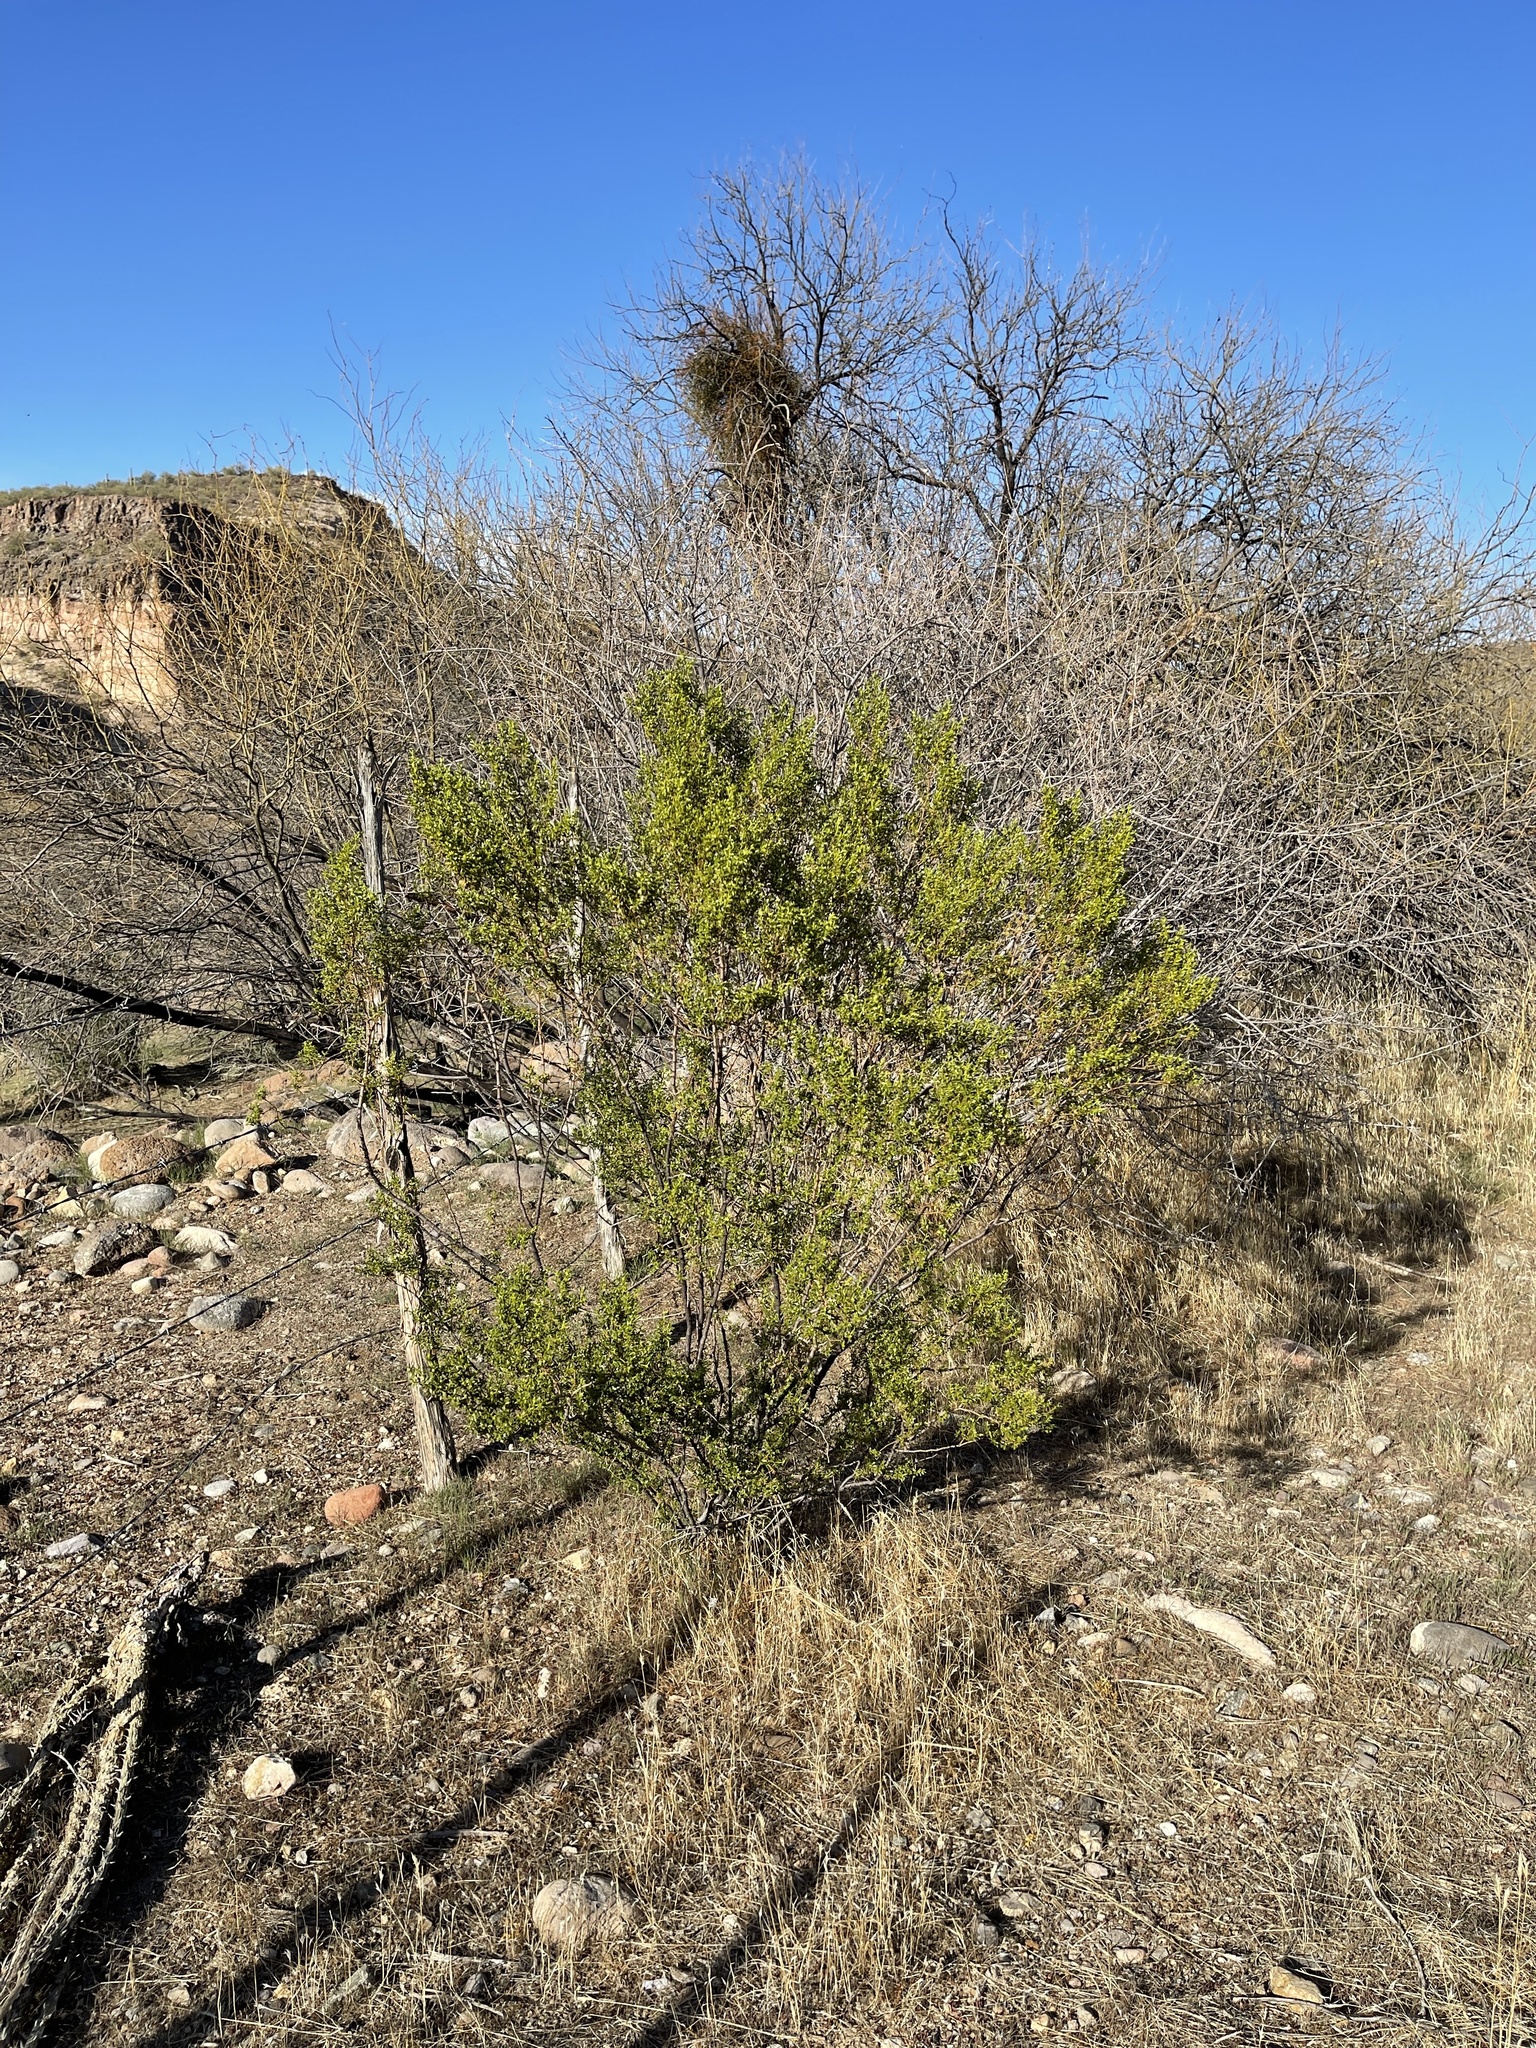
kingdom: Plantae
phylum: Tracheophyta
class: Magnoliopsida
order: Zygophyllales
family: Zygophyllaceae
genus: Larrea
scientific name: Larrea tridentata
